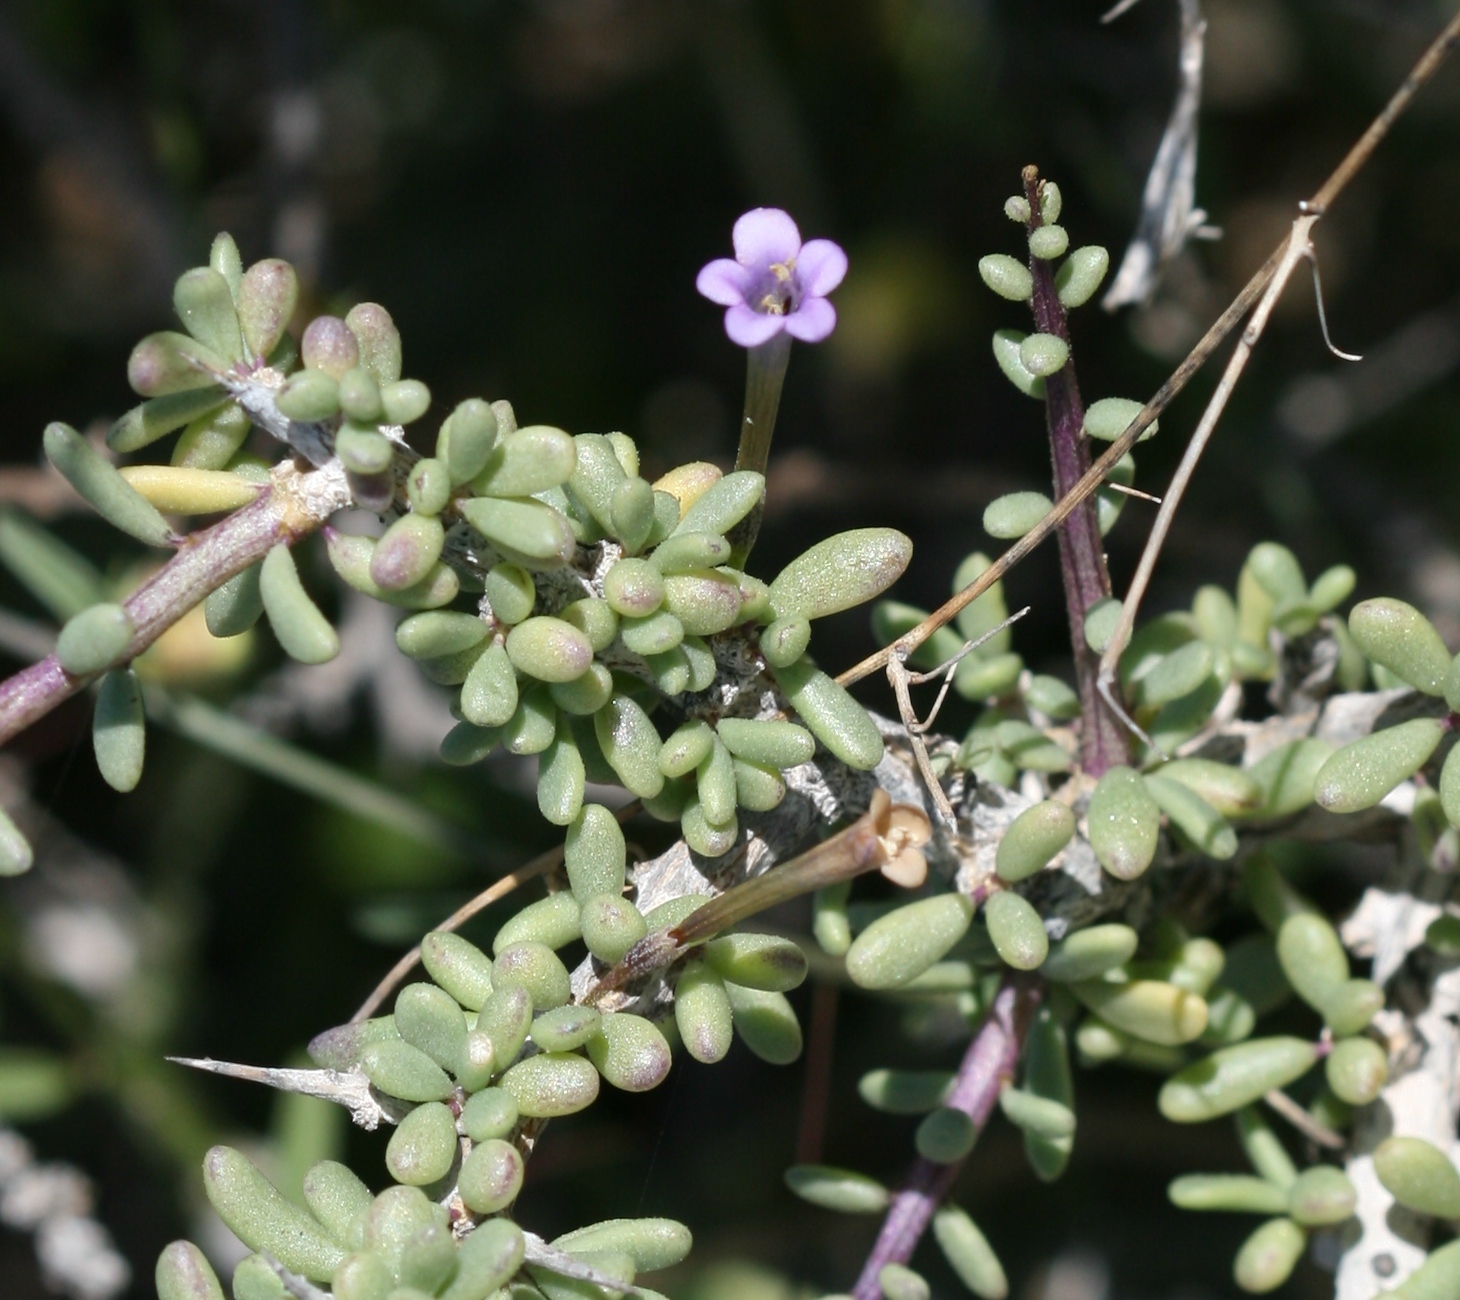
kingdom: Plantae
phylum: Tracheophyta
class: Magnoliopsida
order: Solanales
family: Solanaceae
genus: Lycium
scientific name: Lycium intricatum
